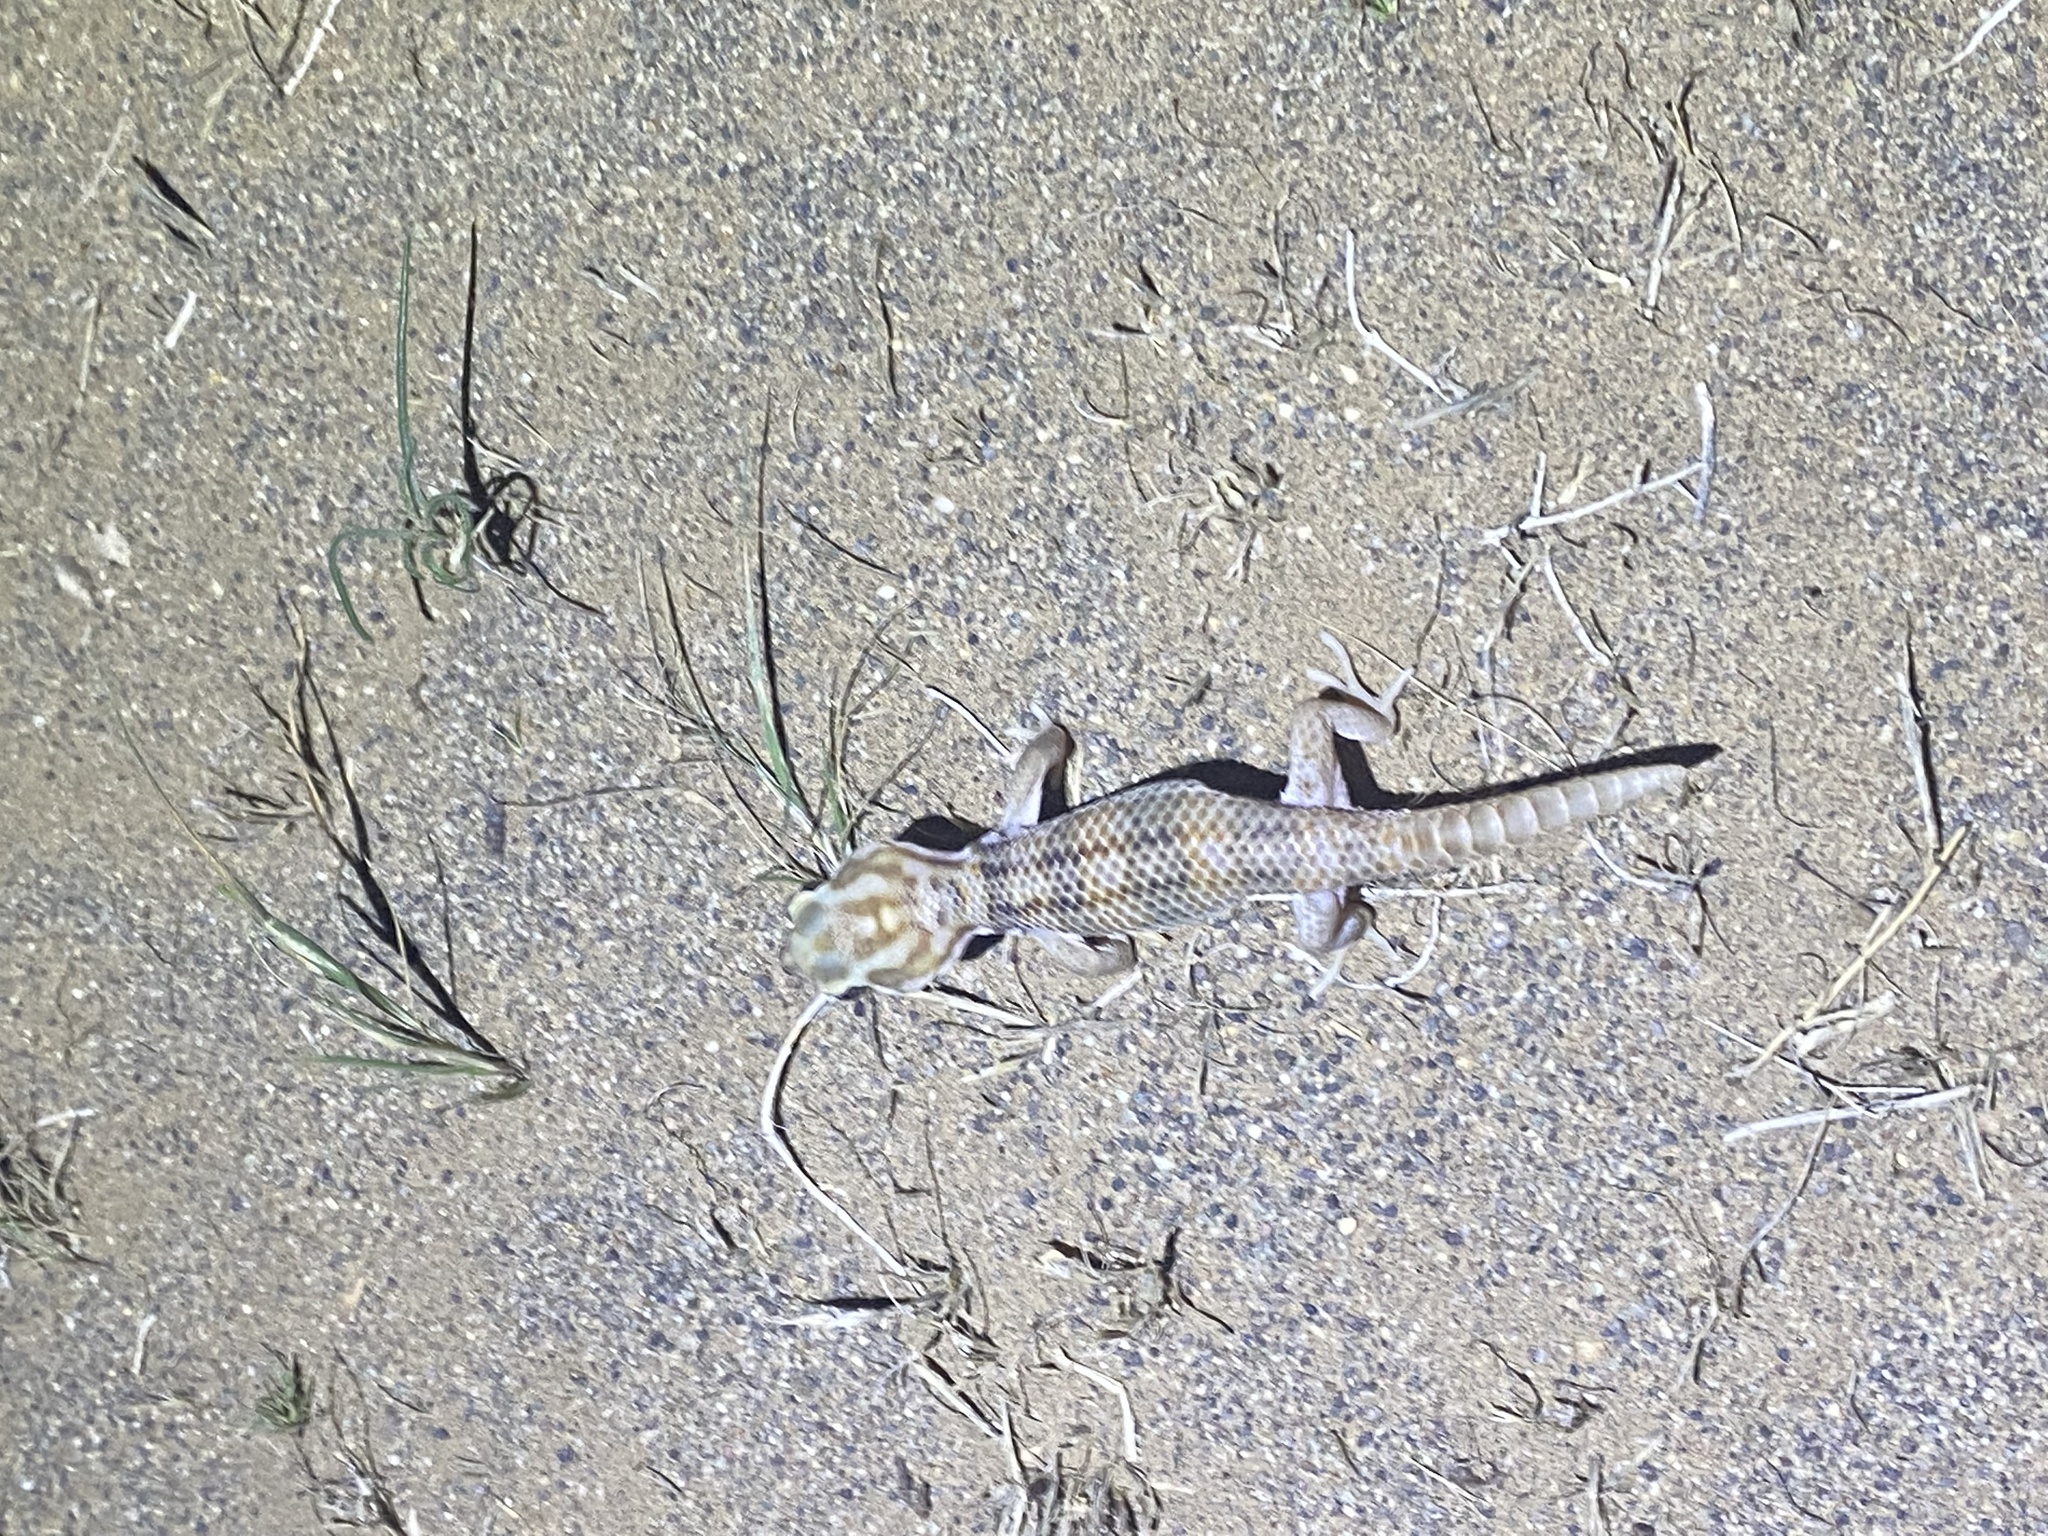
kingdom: Animalia
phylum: Chordata
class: Squamata
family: Sphaerodactylidae
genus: Teratoscincus
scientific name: Teratoscincus keyserlingii
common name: Frog-eyed gecko
